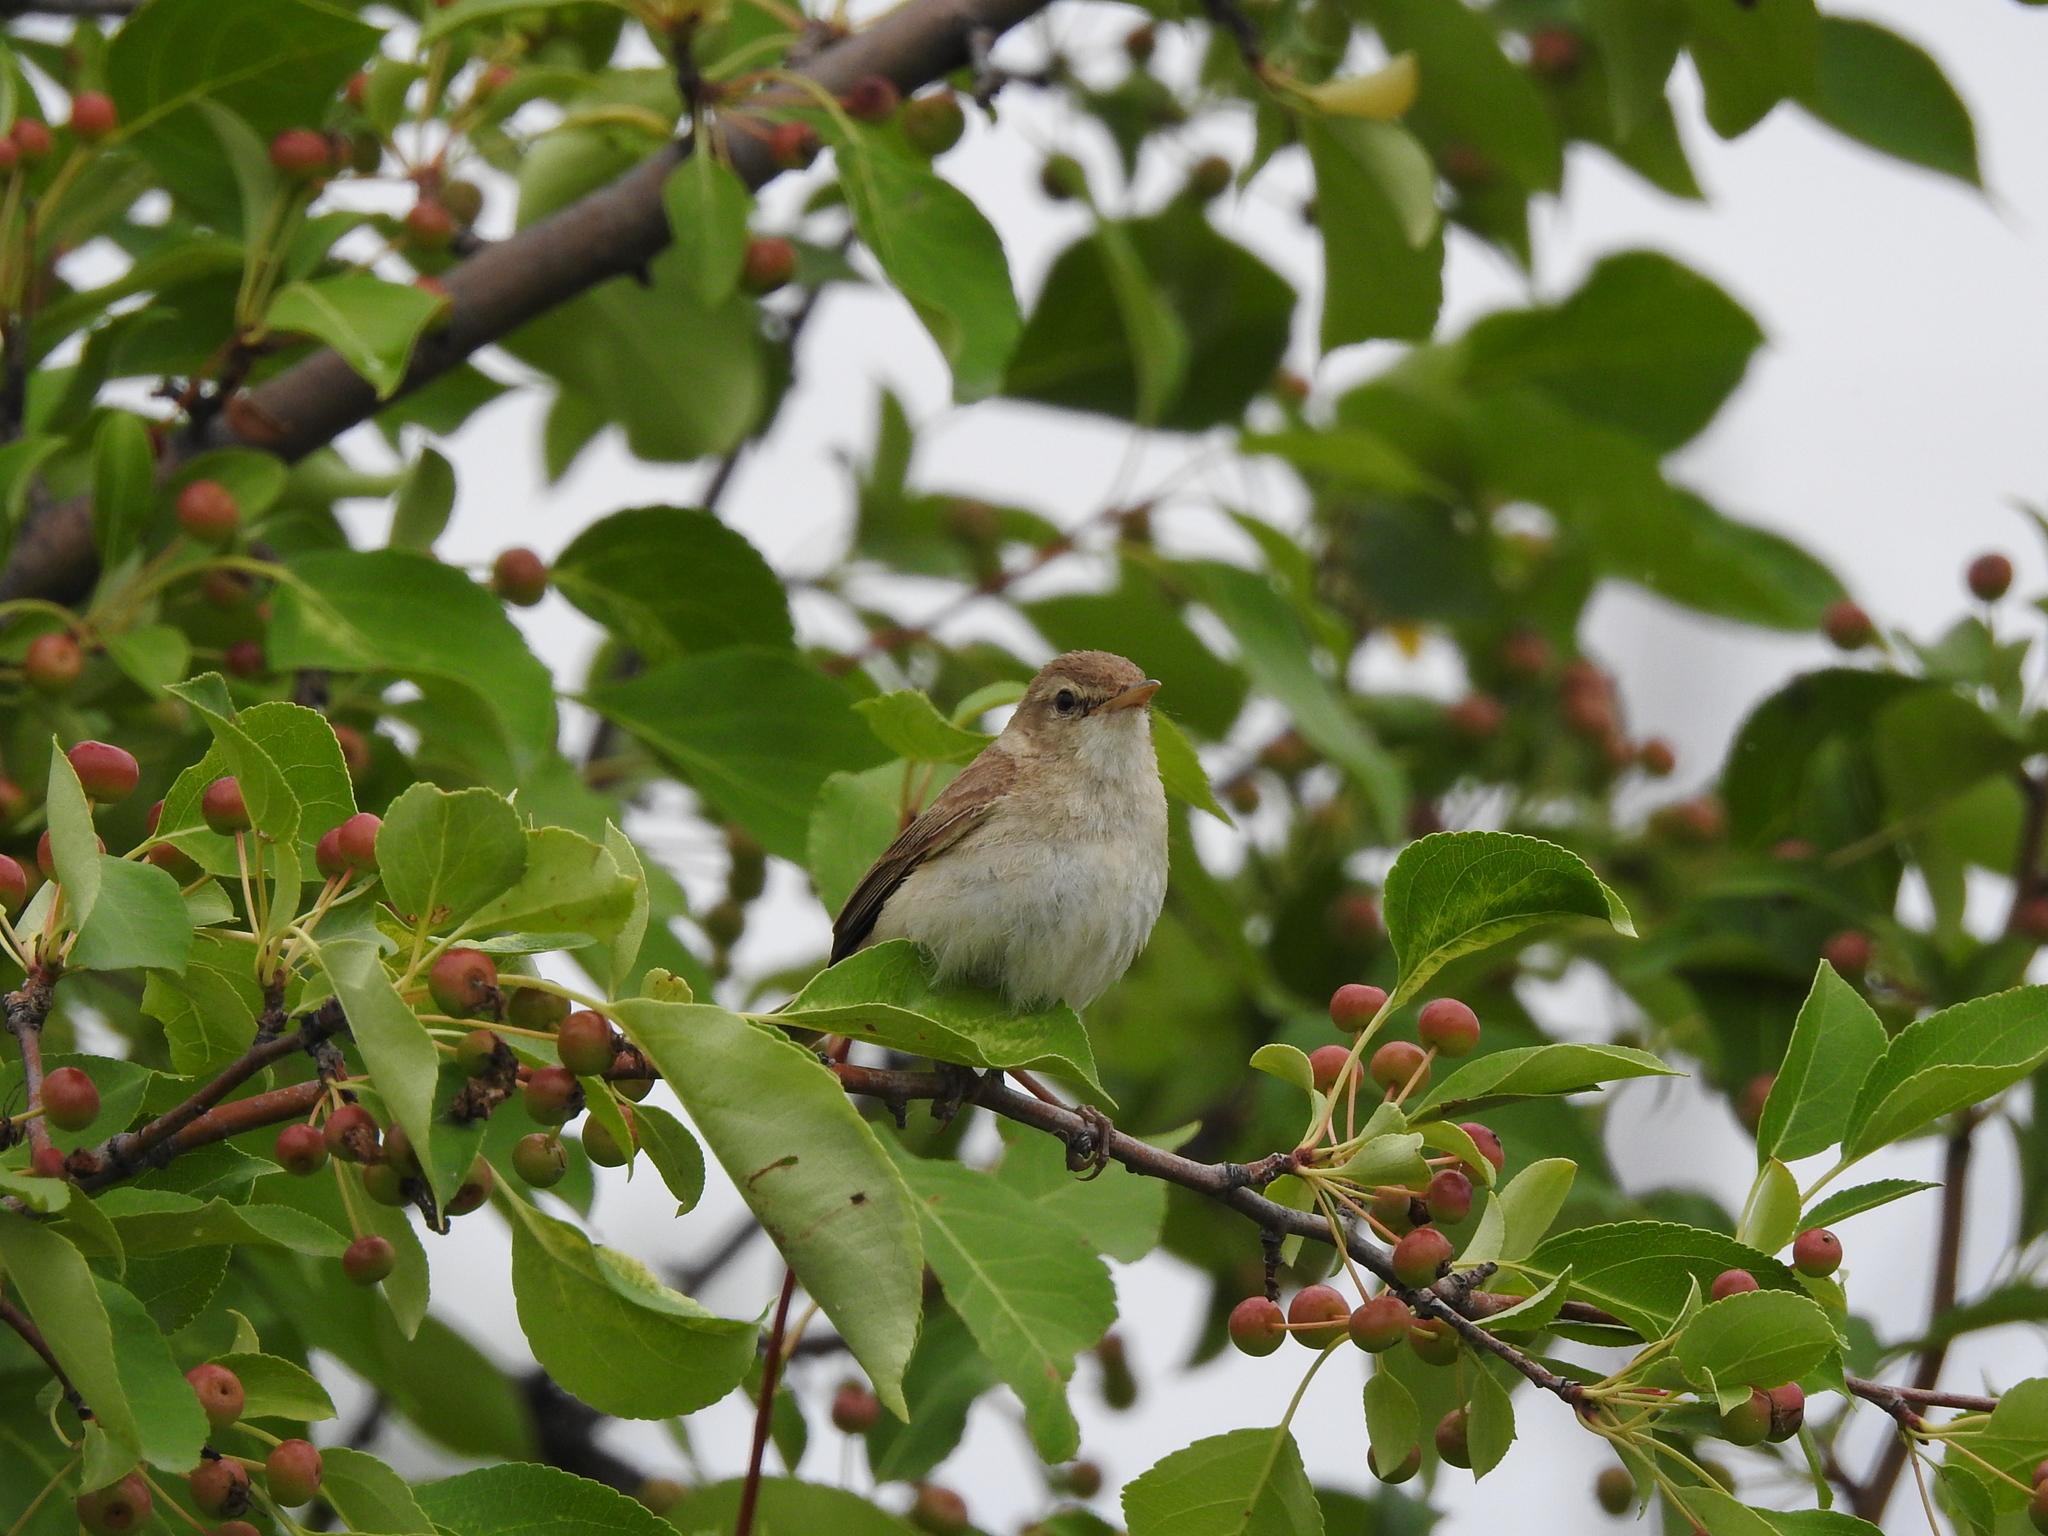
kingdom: Animalia
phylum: Chordata
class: Aves
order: Passeriformes
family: Acrocephalidae
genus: Iduna
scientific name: Iduna caligata
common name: Booted warbler
